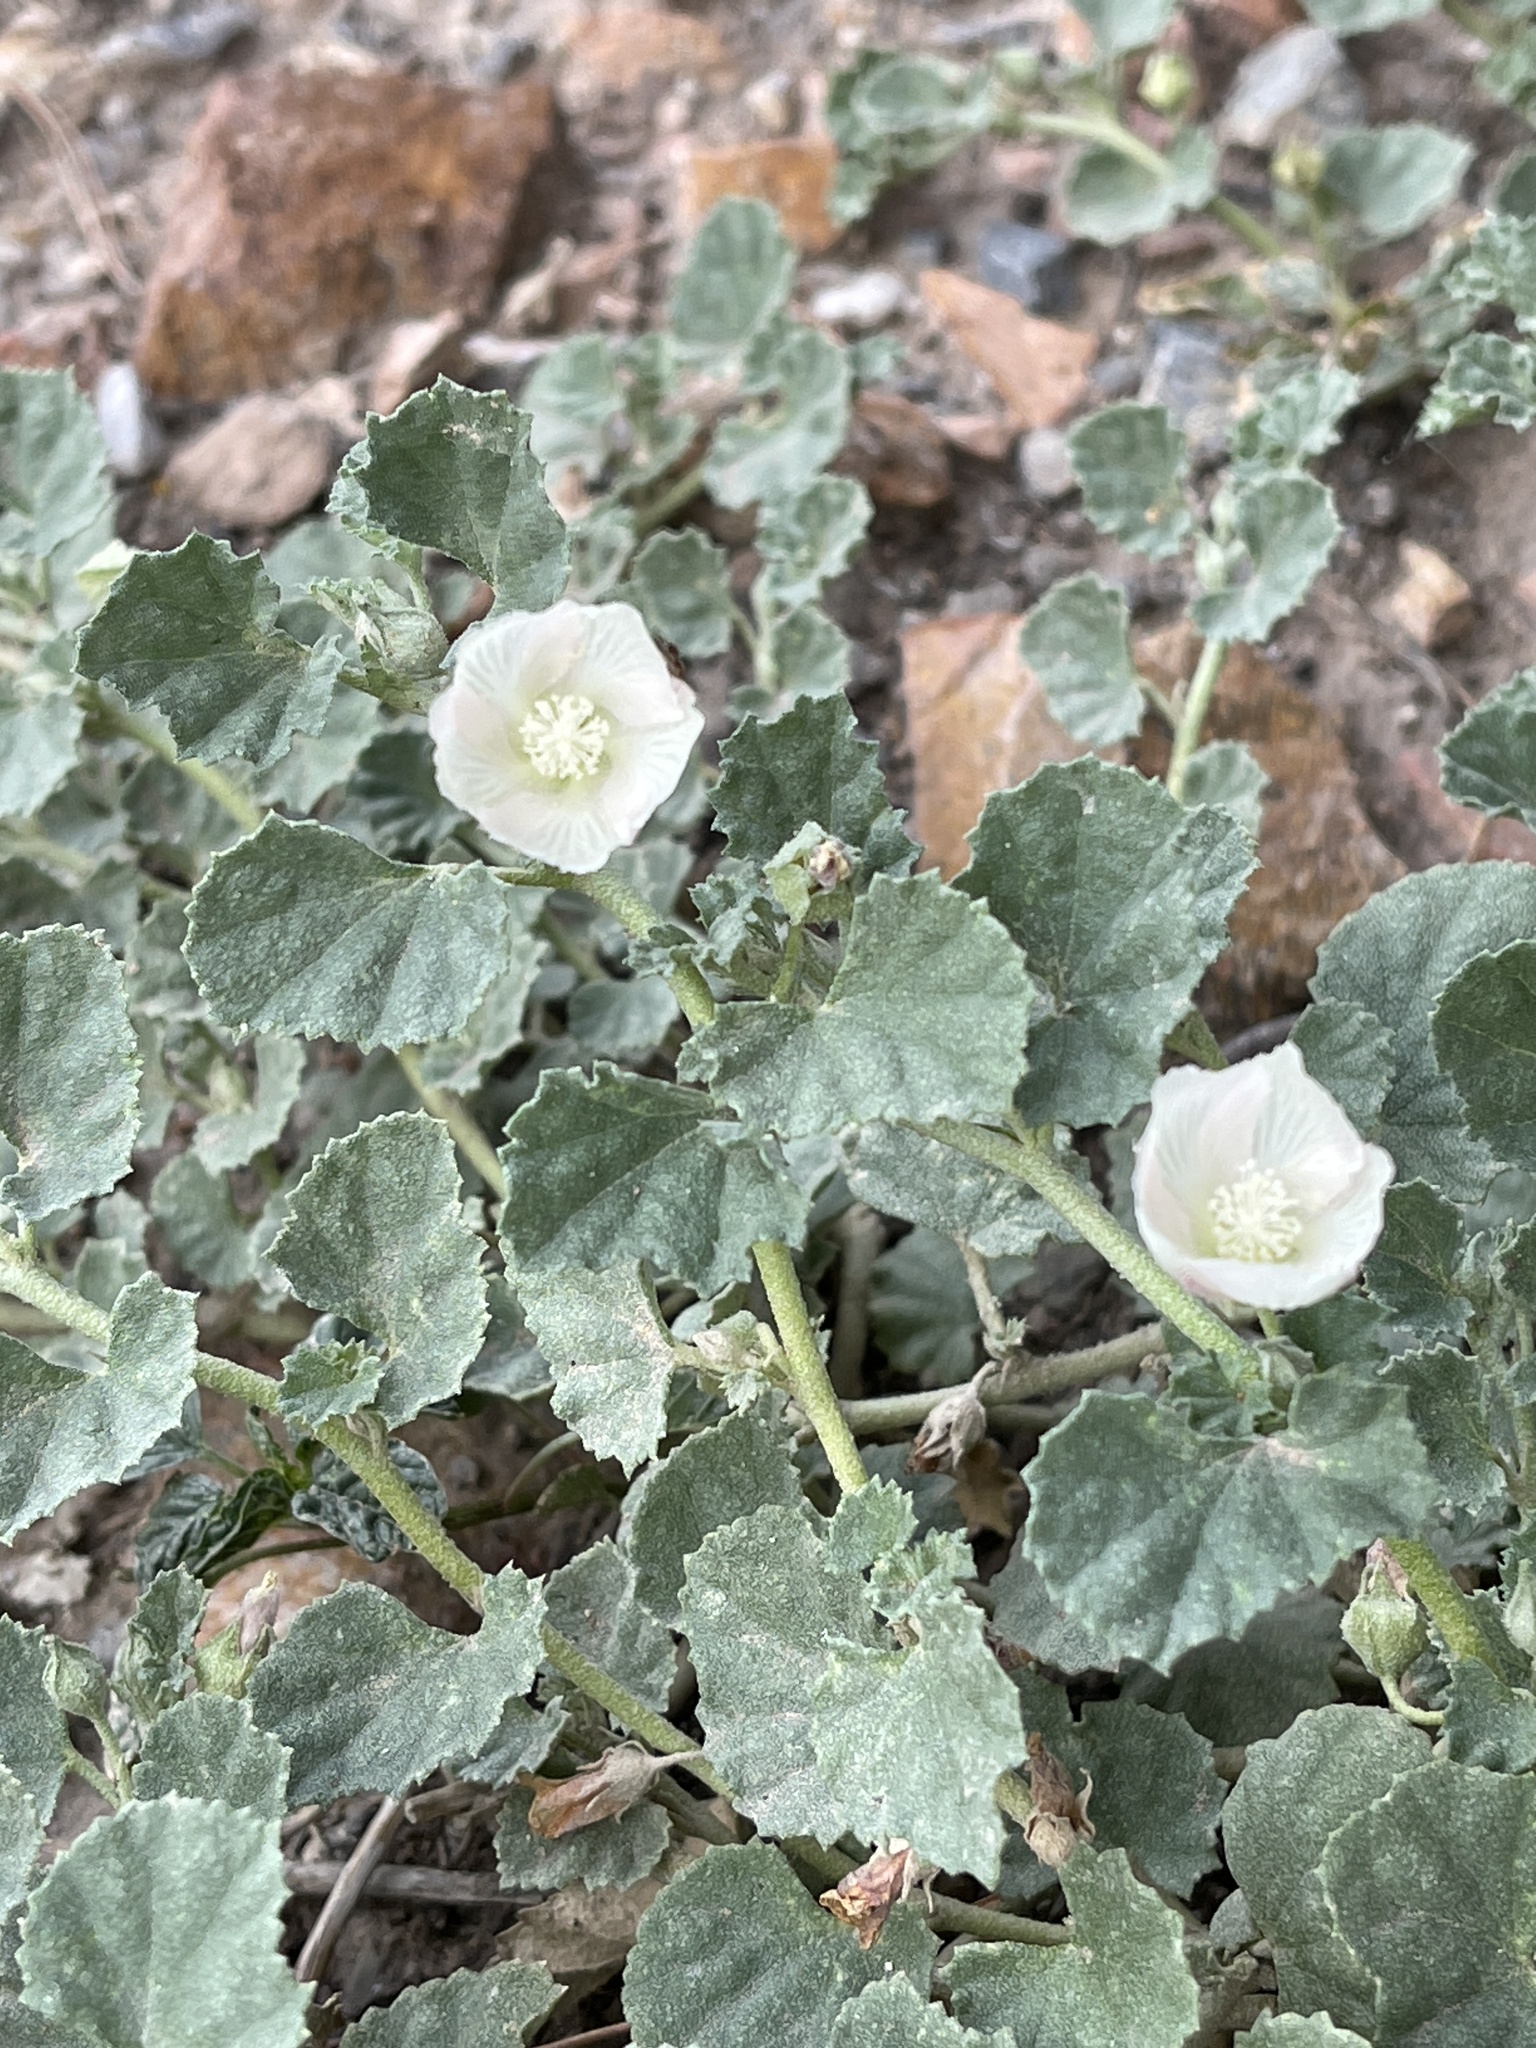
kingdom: Plantae
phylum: Tracheophyta
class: Magnoliopsida
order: Malvales
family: Malvaceae
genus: Malvella
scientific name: Malvella leprosa
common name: Alkali-mallow
